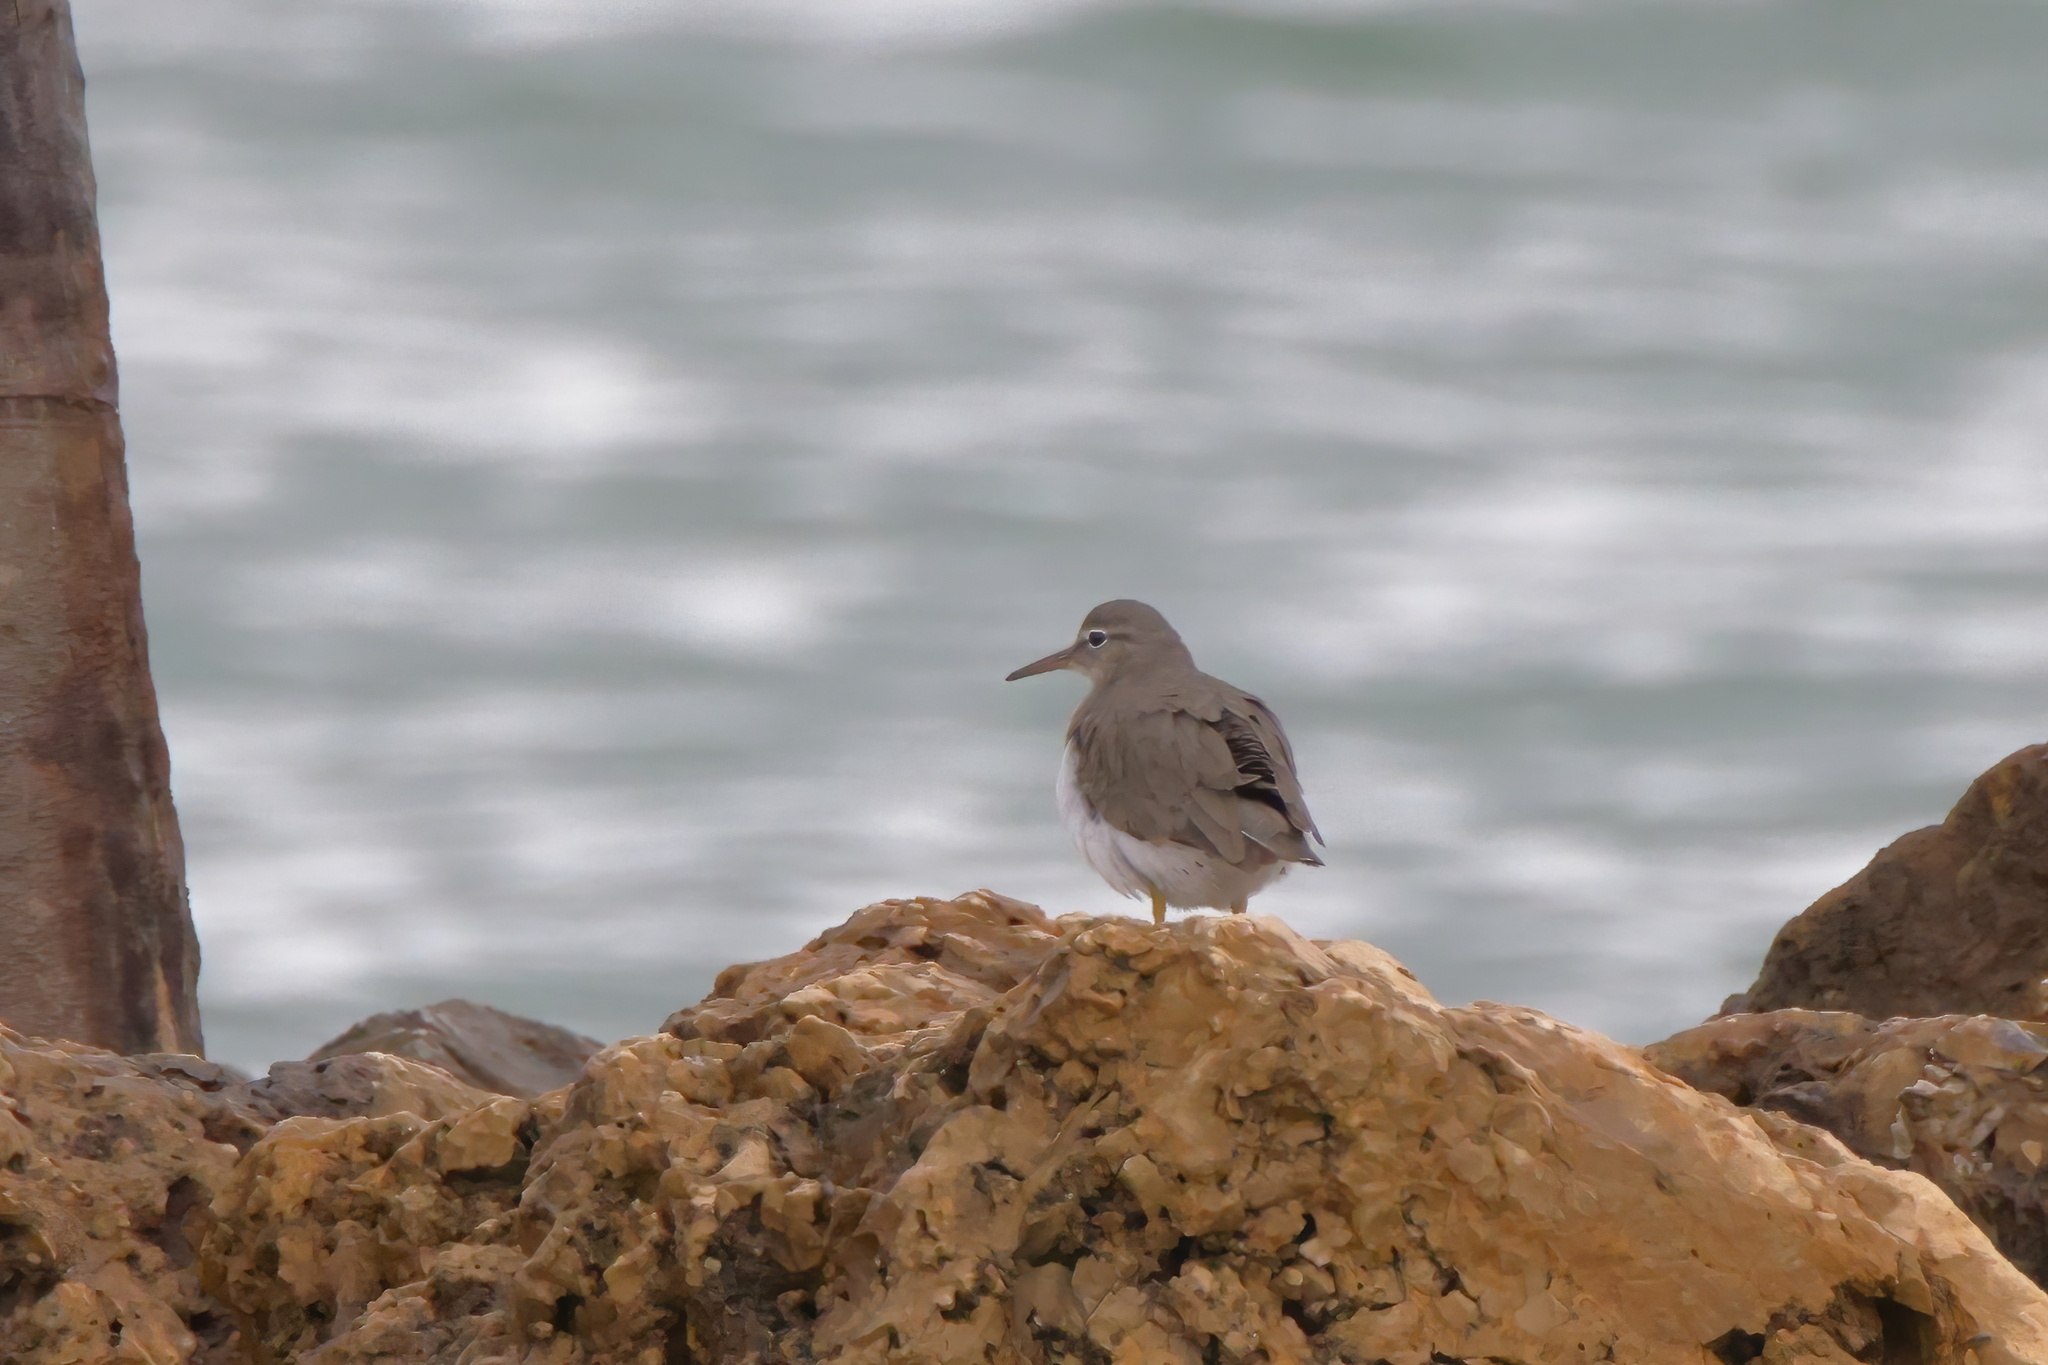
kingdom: Animalia
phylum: Chordata
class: Aves
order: Charadriiformes
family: Scolopacidae
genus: Actitis
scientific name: Actitis macularius
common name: Spotted sandpiper
